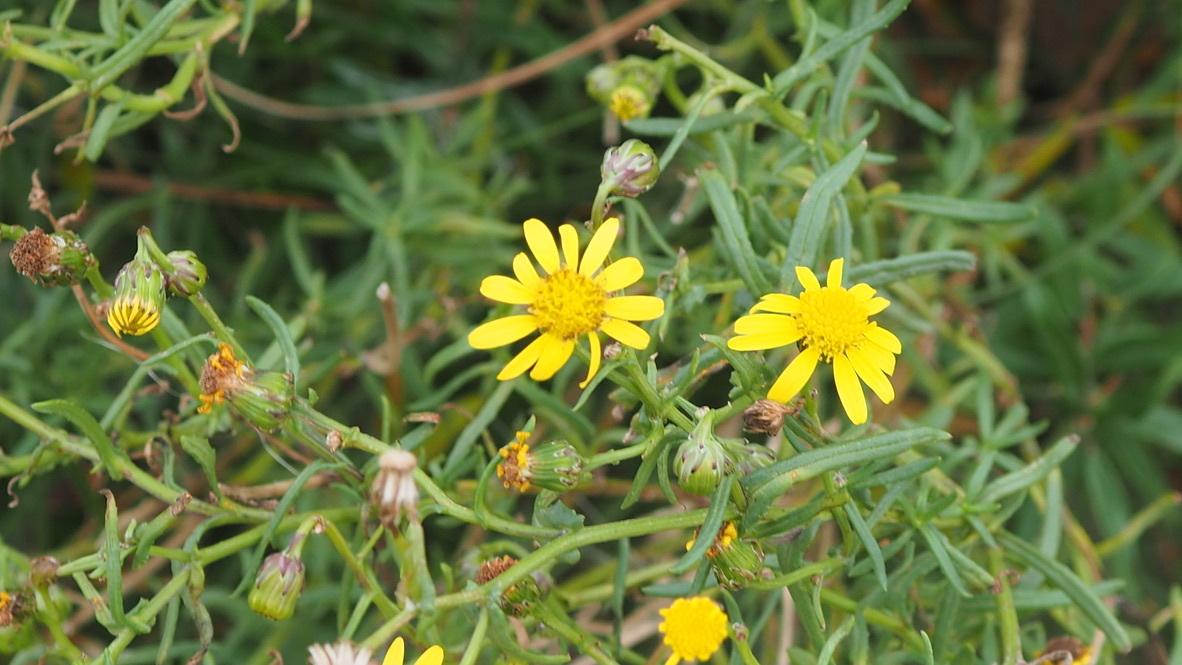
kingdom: Plantae
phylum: Tracheophyta
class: Magnoliopsida
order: Asterales
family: Asteraceae
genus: Senecio
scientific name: Senecio inaequidens
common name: Narrow-leaved ragwort
